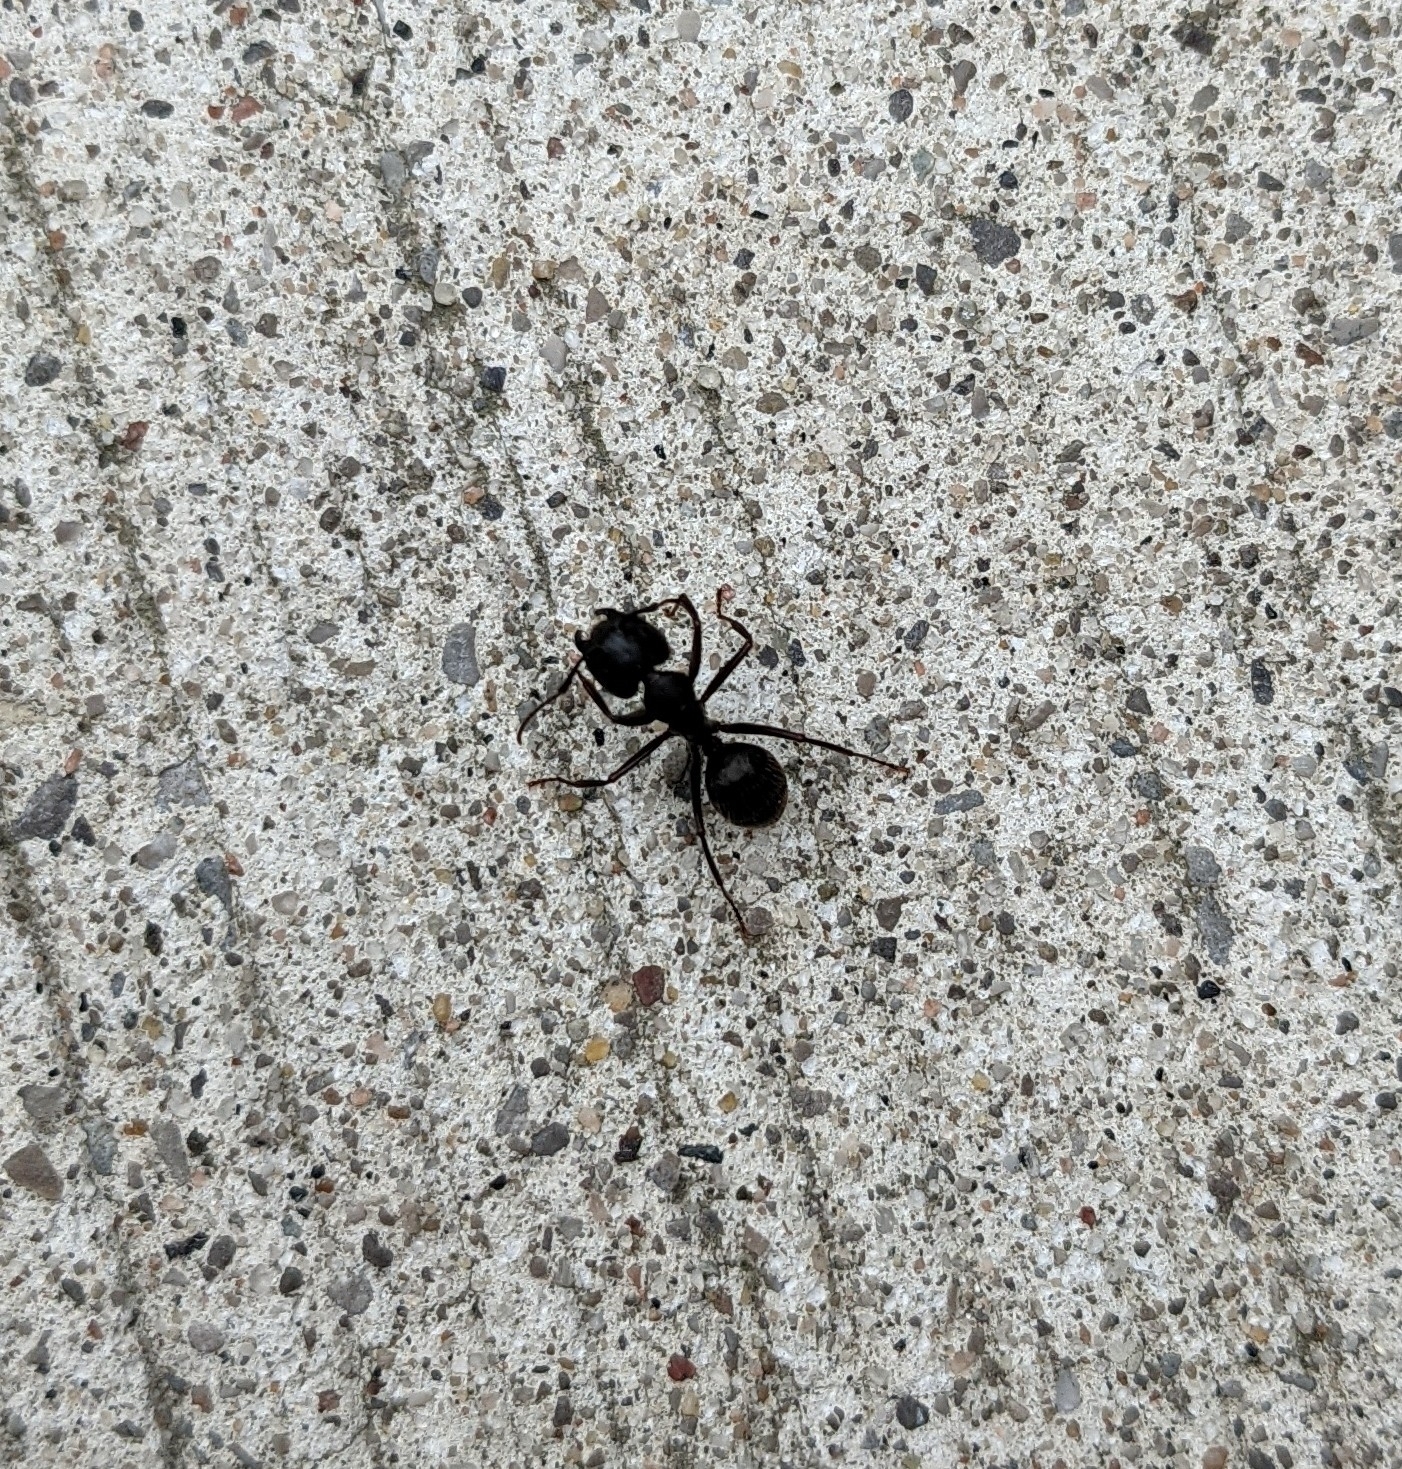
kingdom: Animalia
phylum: Arthropoda
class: Insecta
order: Hymenoptera
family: Formicidae
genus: Camponotus
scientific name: Camponotus pennsylvanicus
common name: Black carpenter ant
